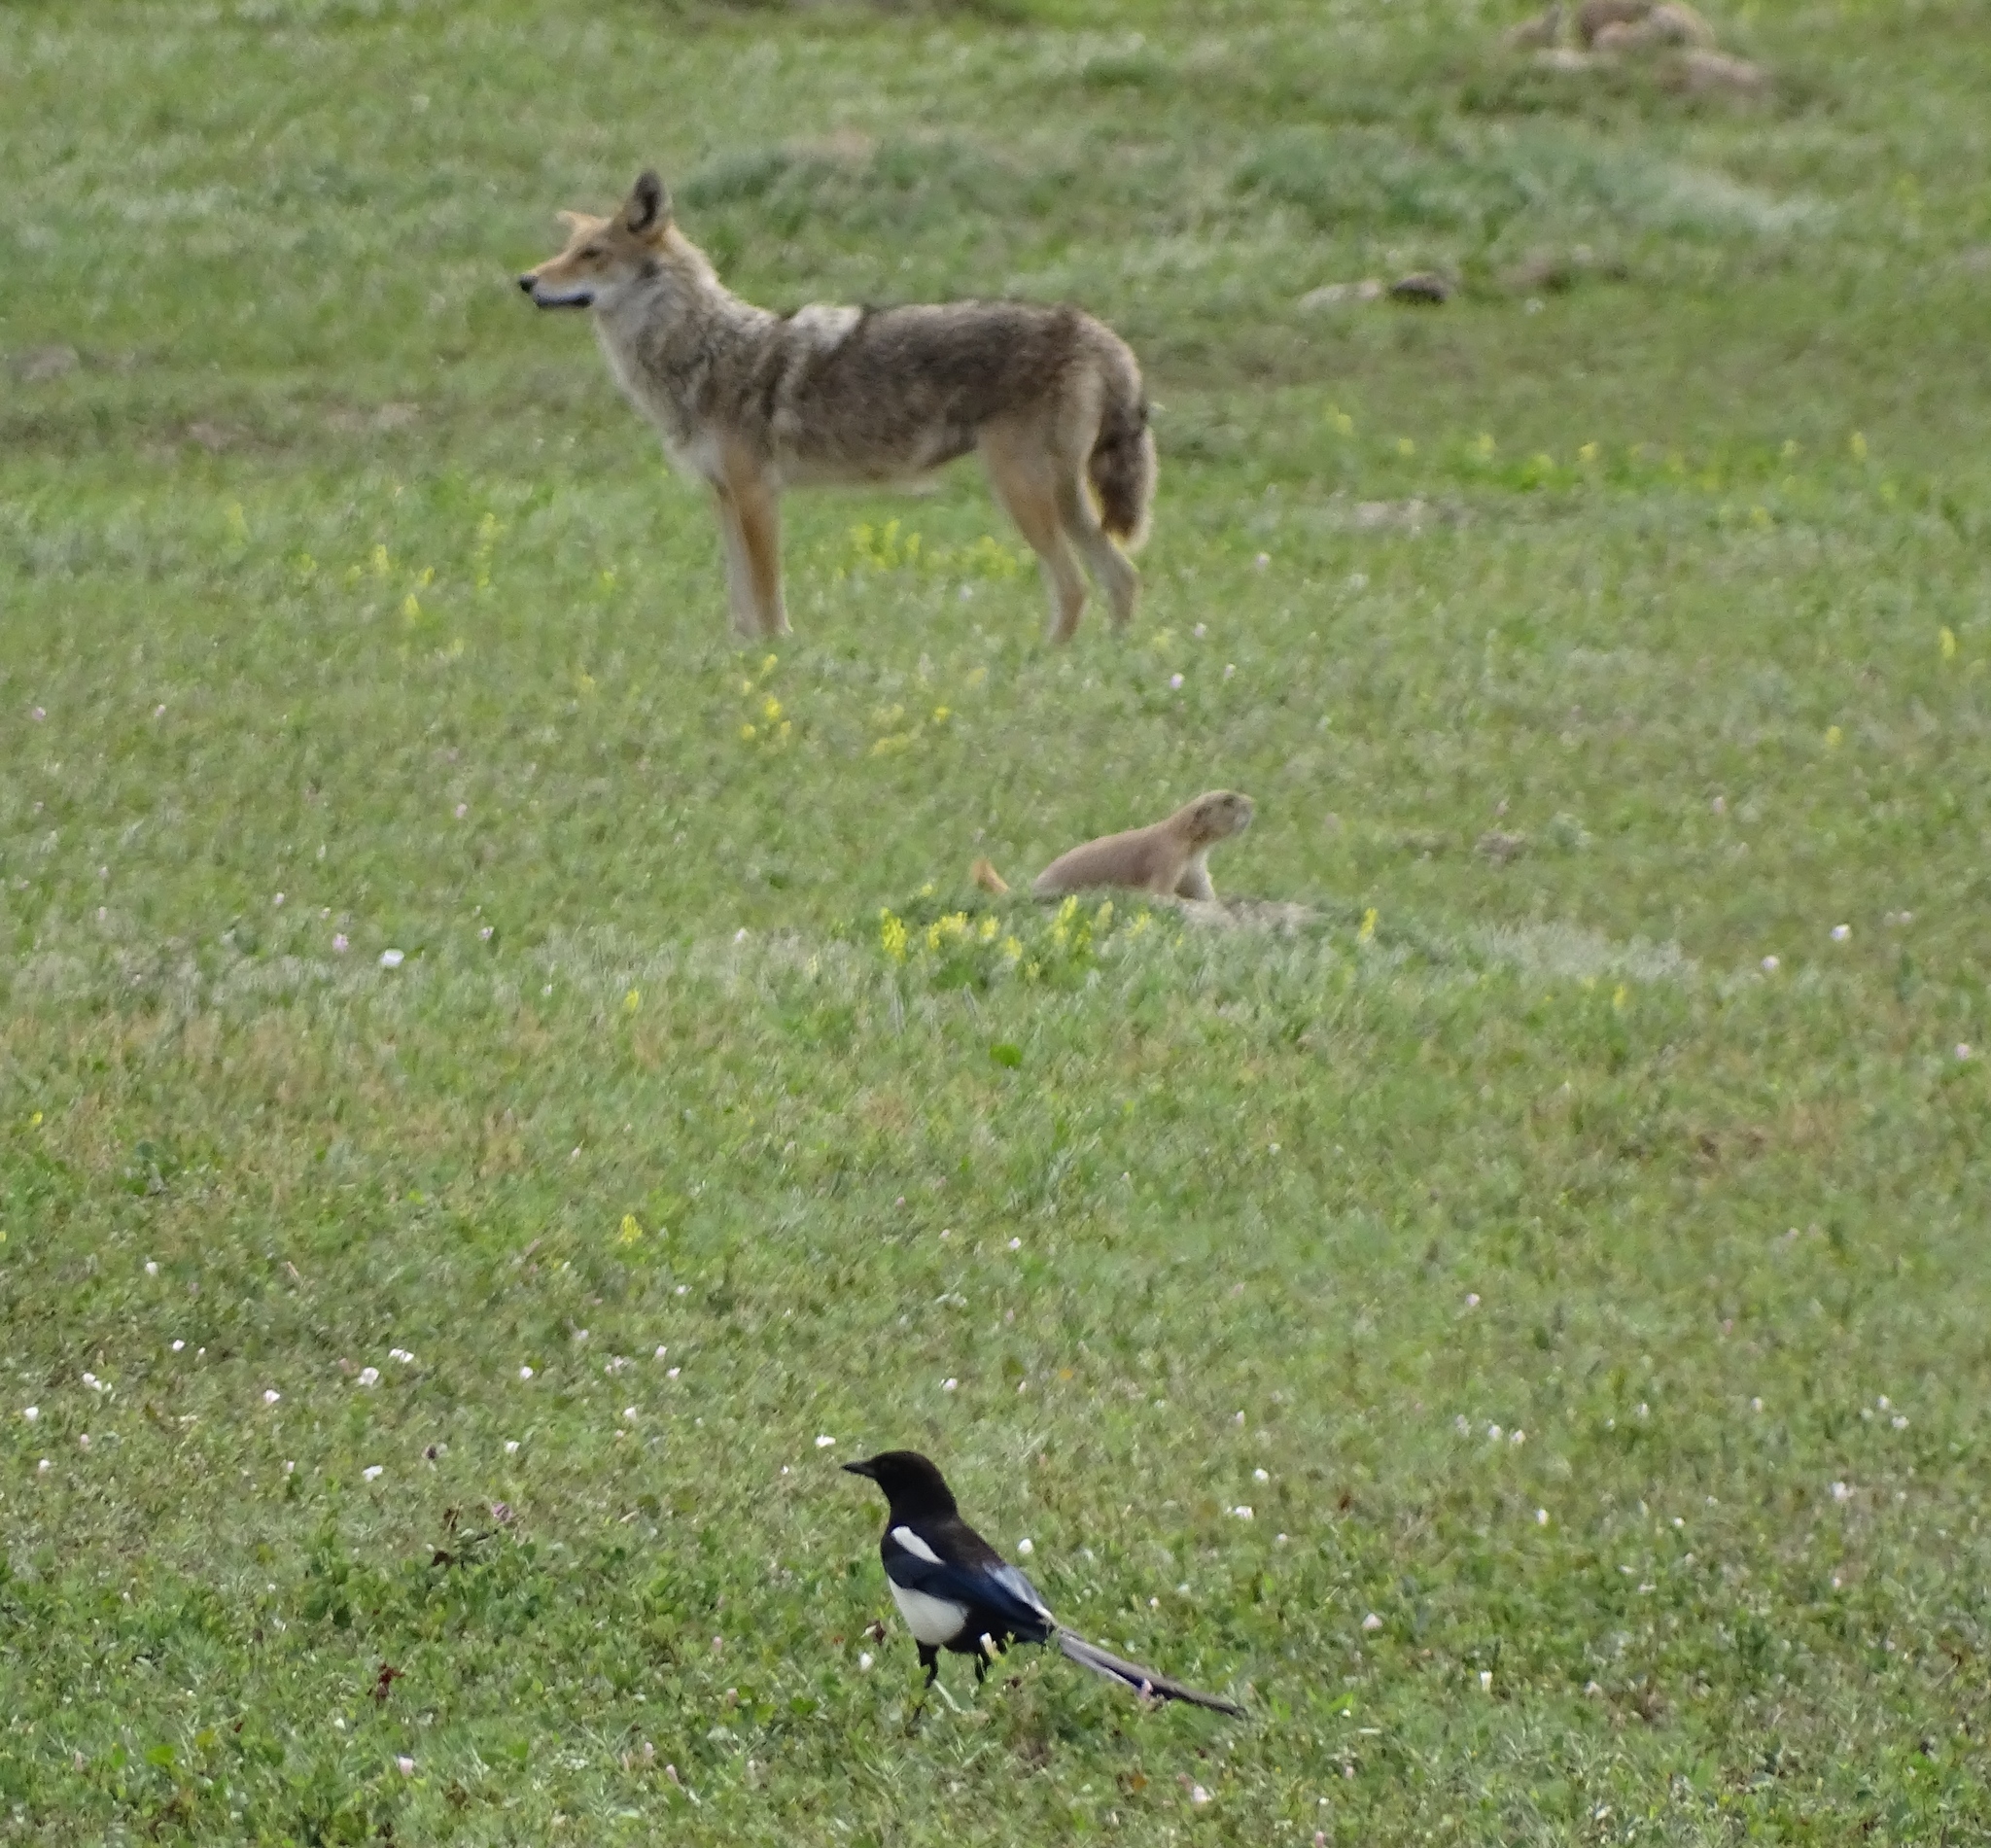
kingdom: Animalia
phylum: Chordata
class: Mammalia
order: Carnivora
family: Canidae
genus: Canis
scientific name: Canis latrans
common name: Coyote
